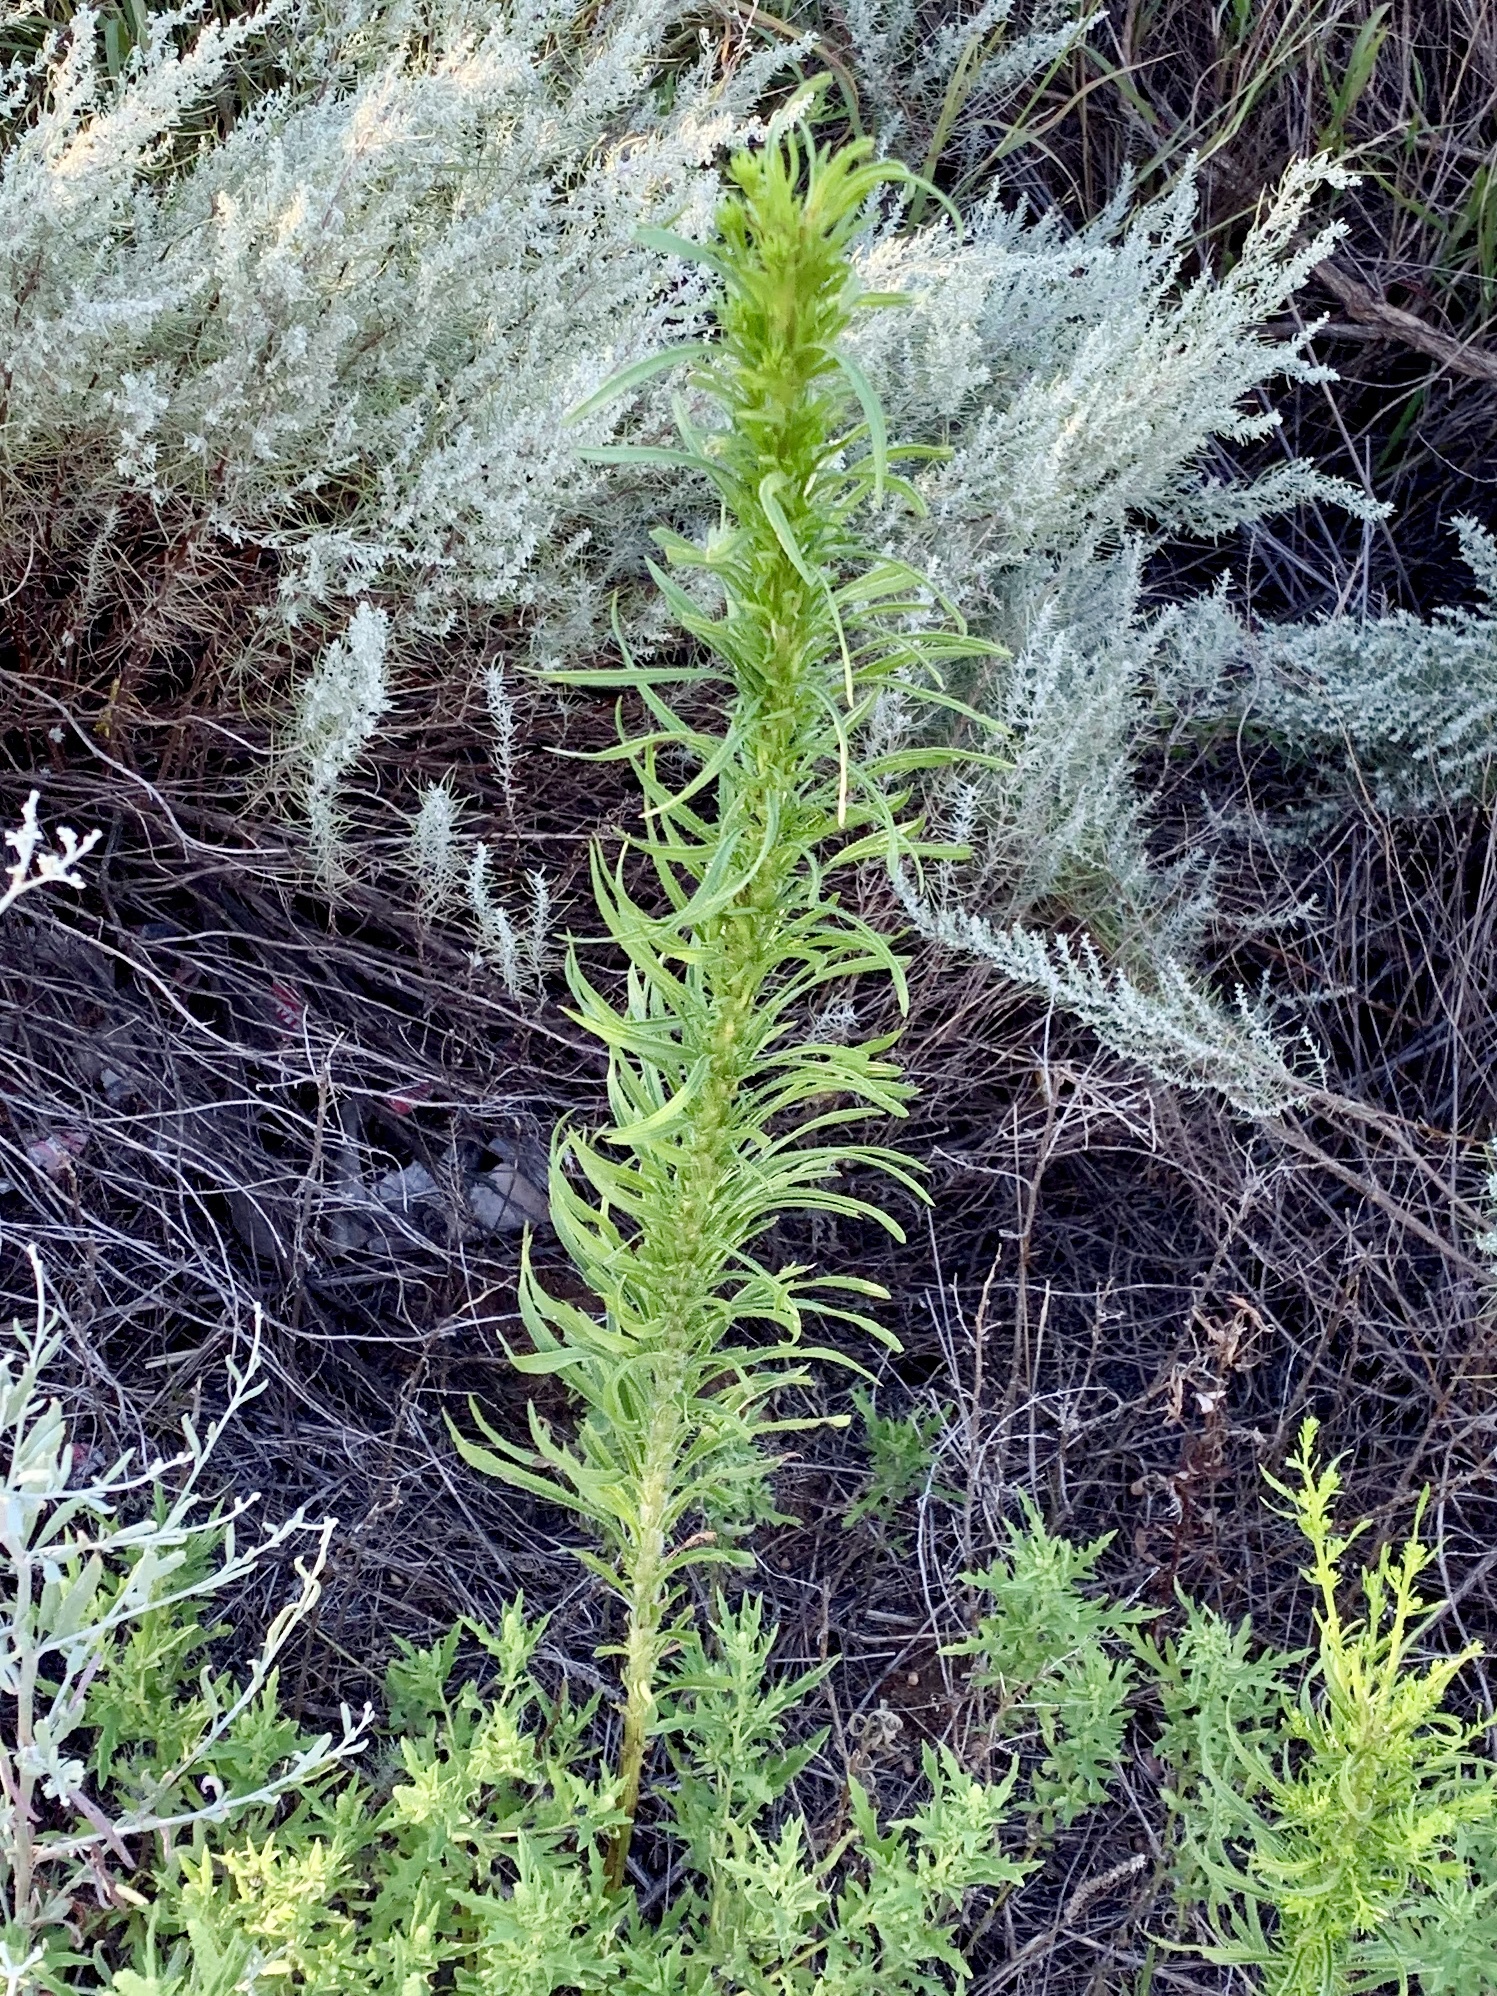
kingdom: Plantae
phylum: Tracheophyta
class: Magnoliopsida
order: Asterales
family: Asteraceae
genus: Erigeron
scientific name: Erigeron canadensis
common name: Canadian fleabane
